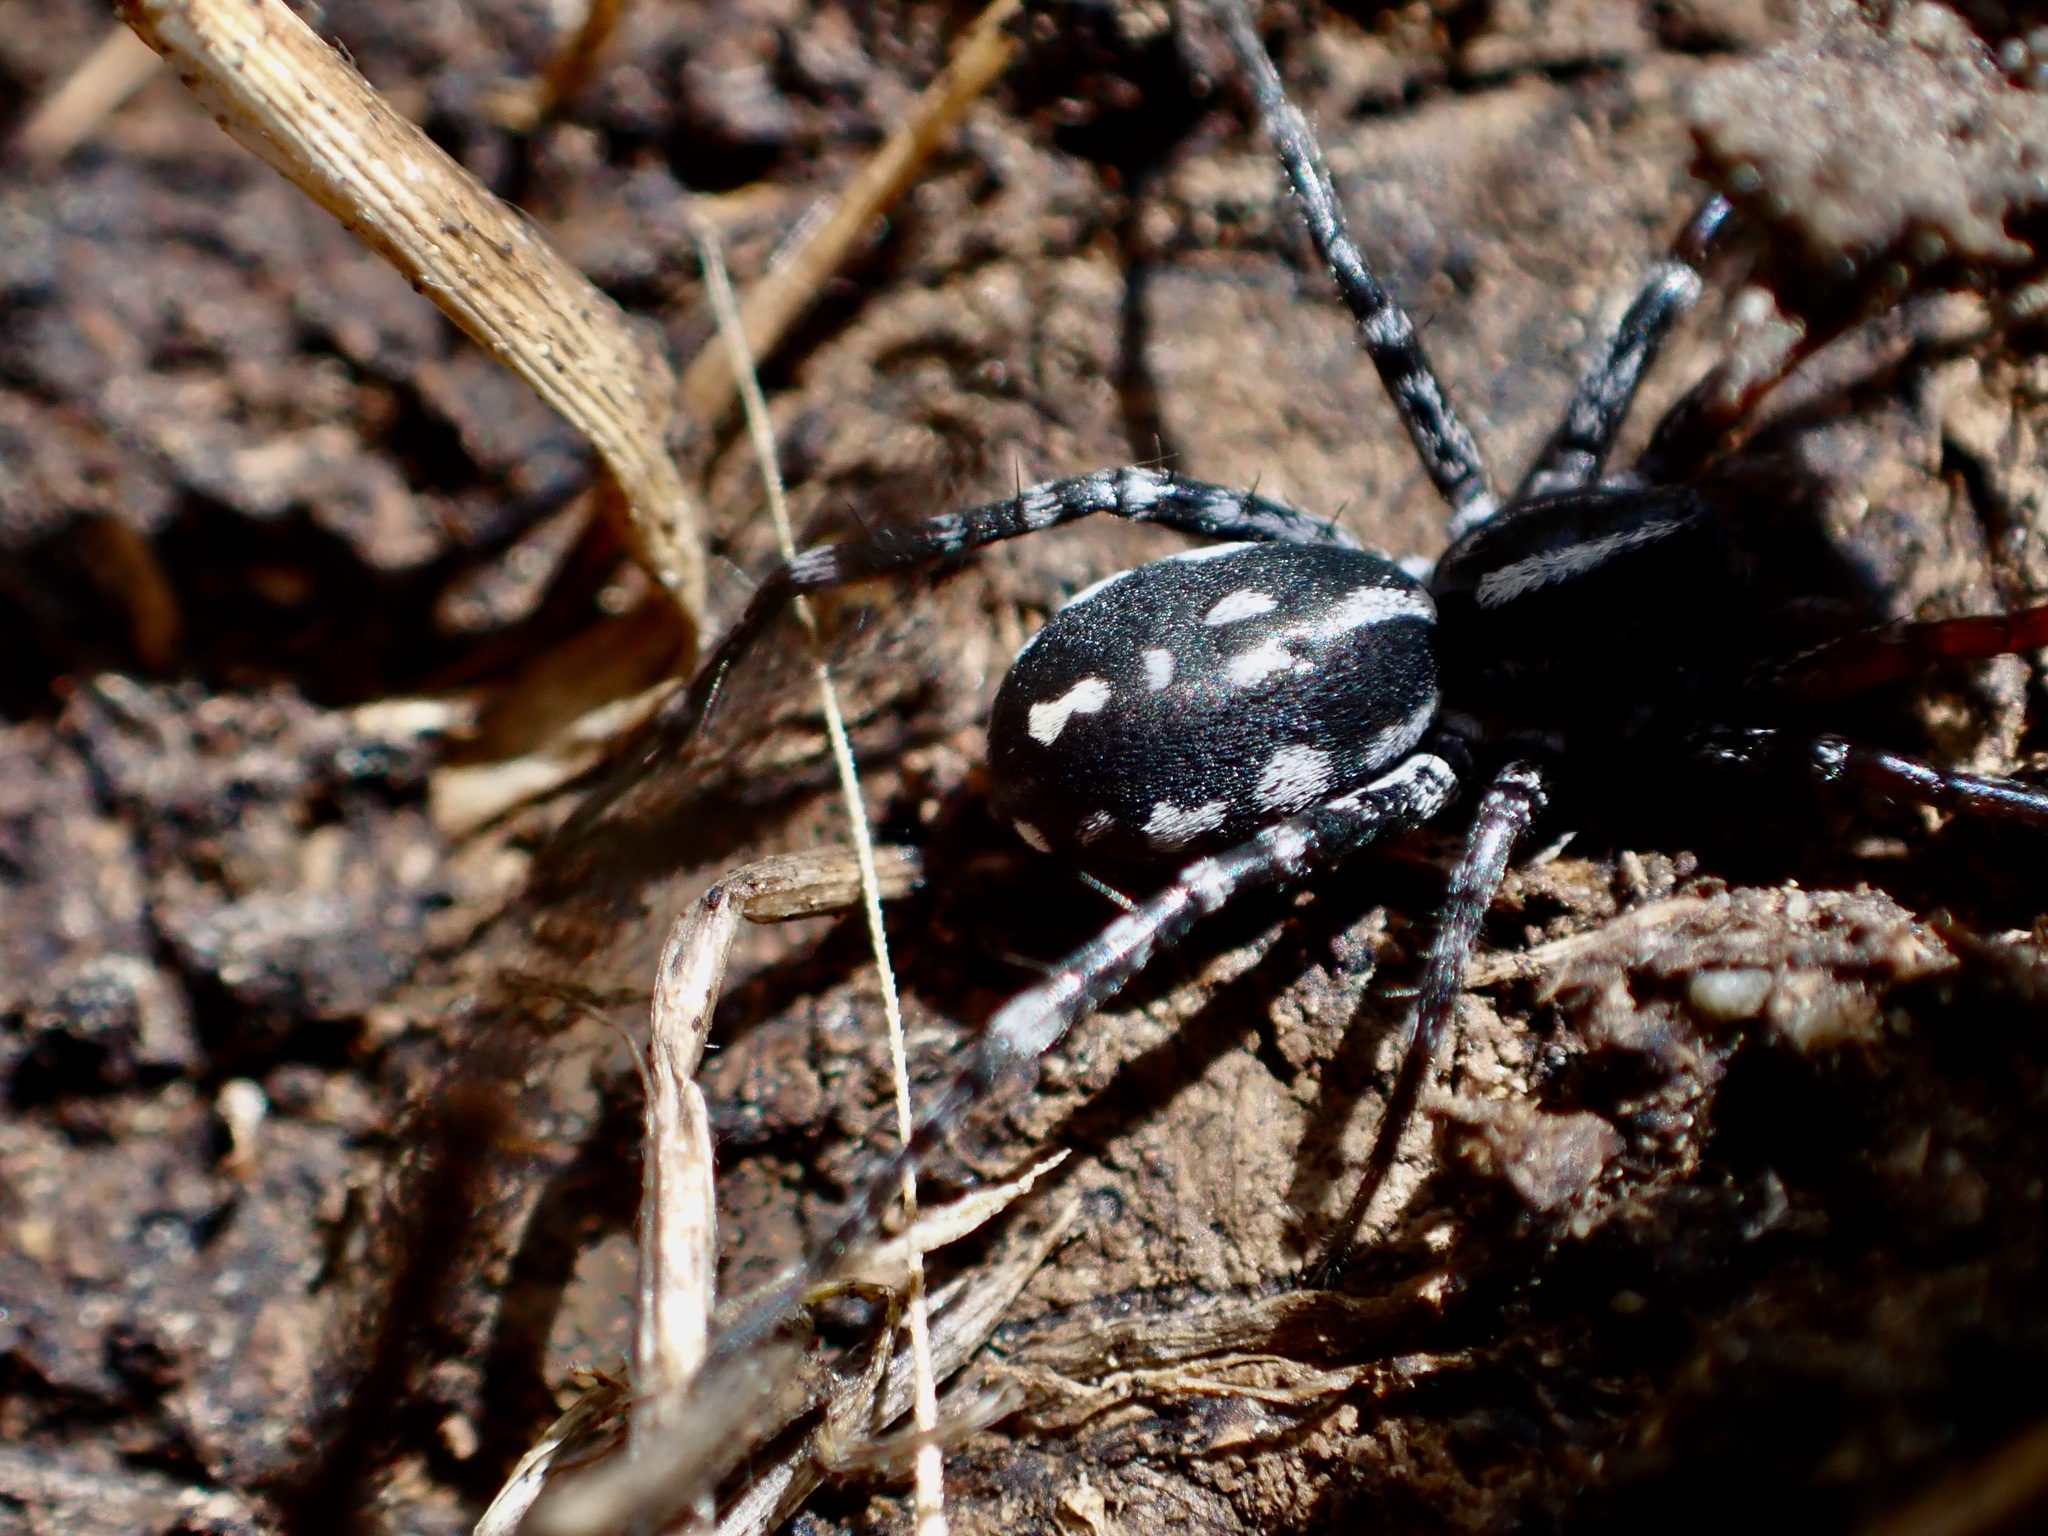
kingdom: Animalia
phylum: Arthropoda
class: Arachnida
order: Araneae
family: Corinnidae
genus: Nyssus
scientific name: Nyssus coloripes
